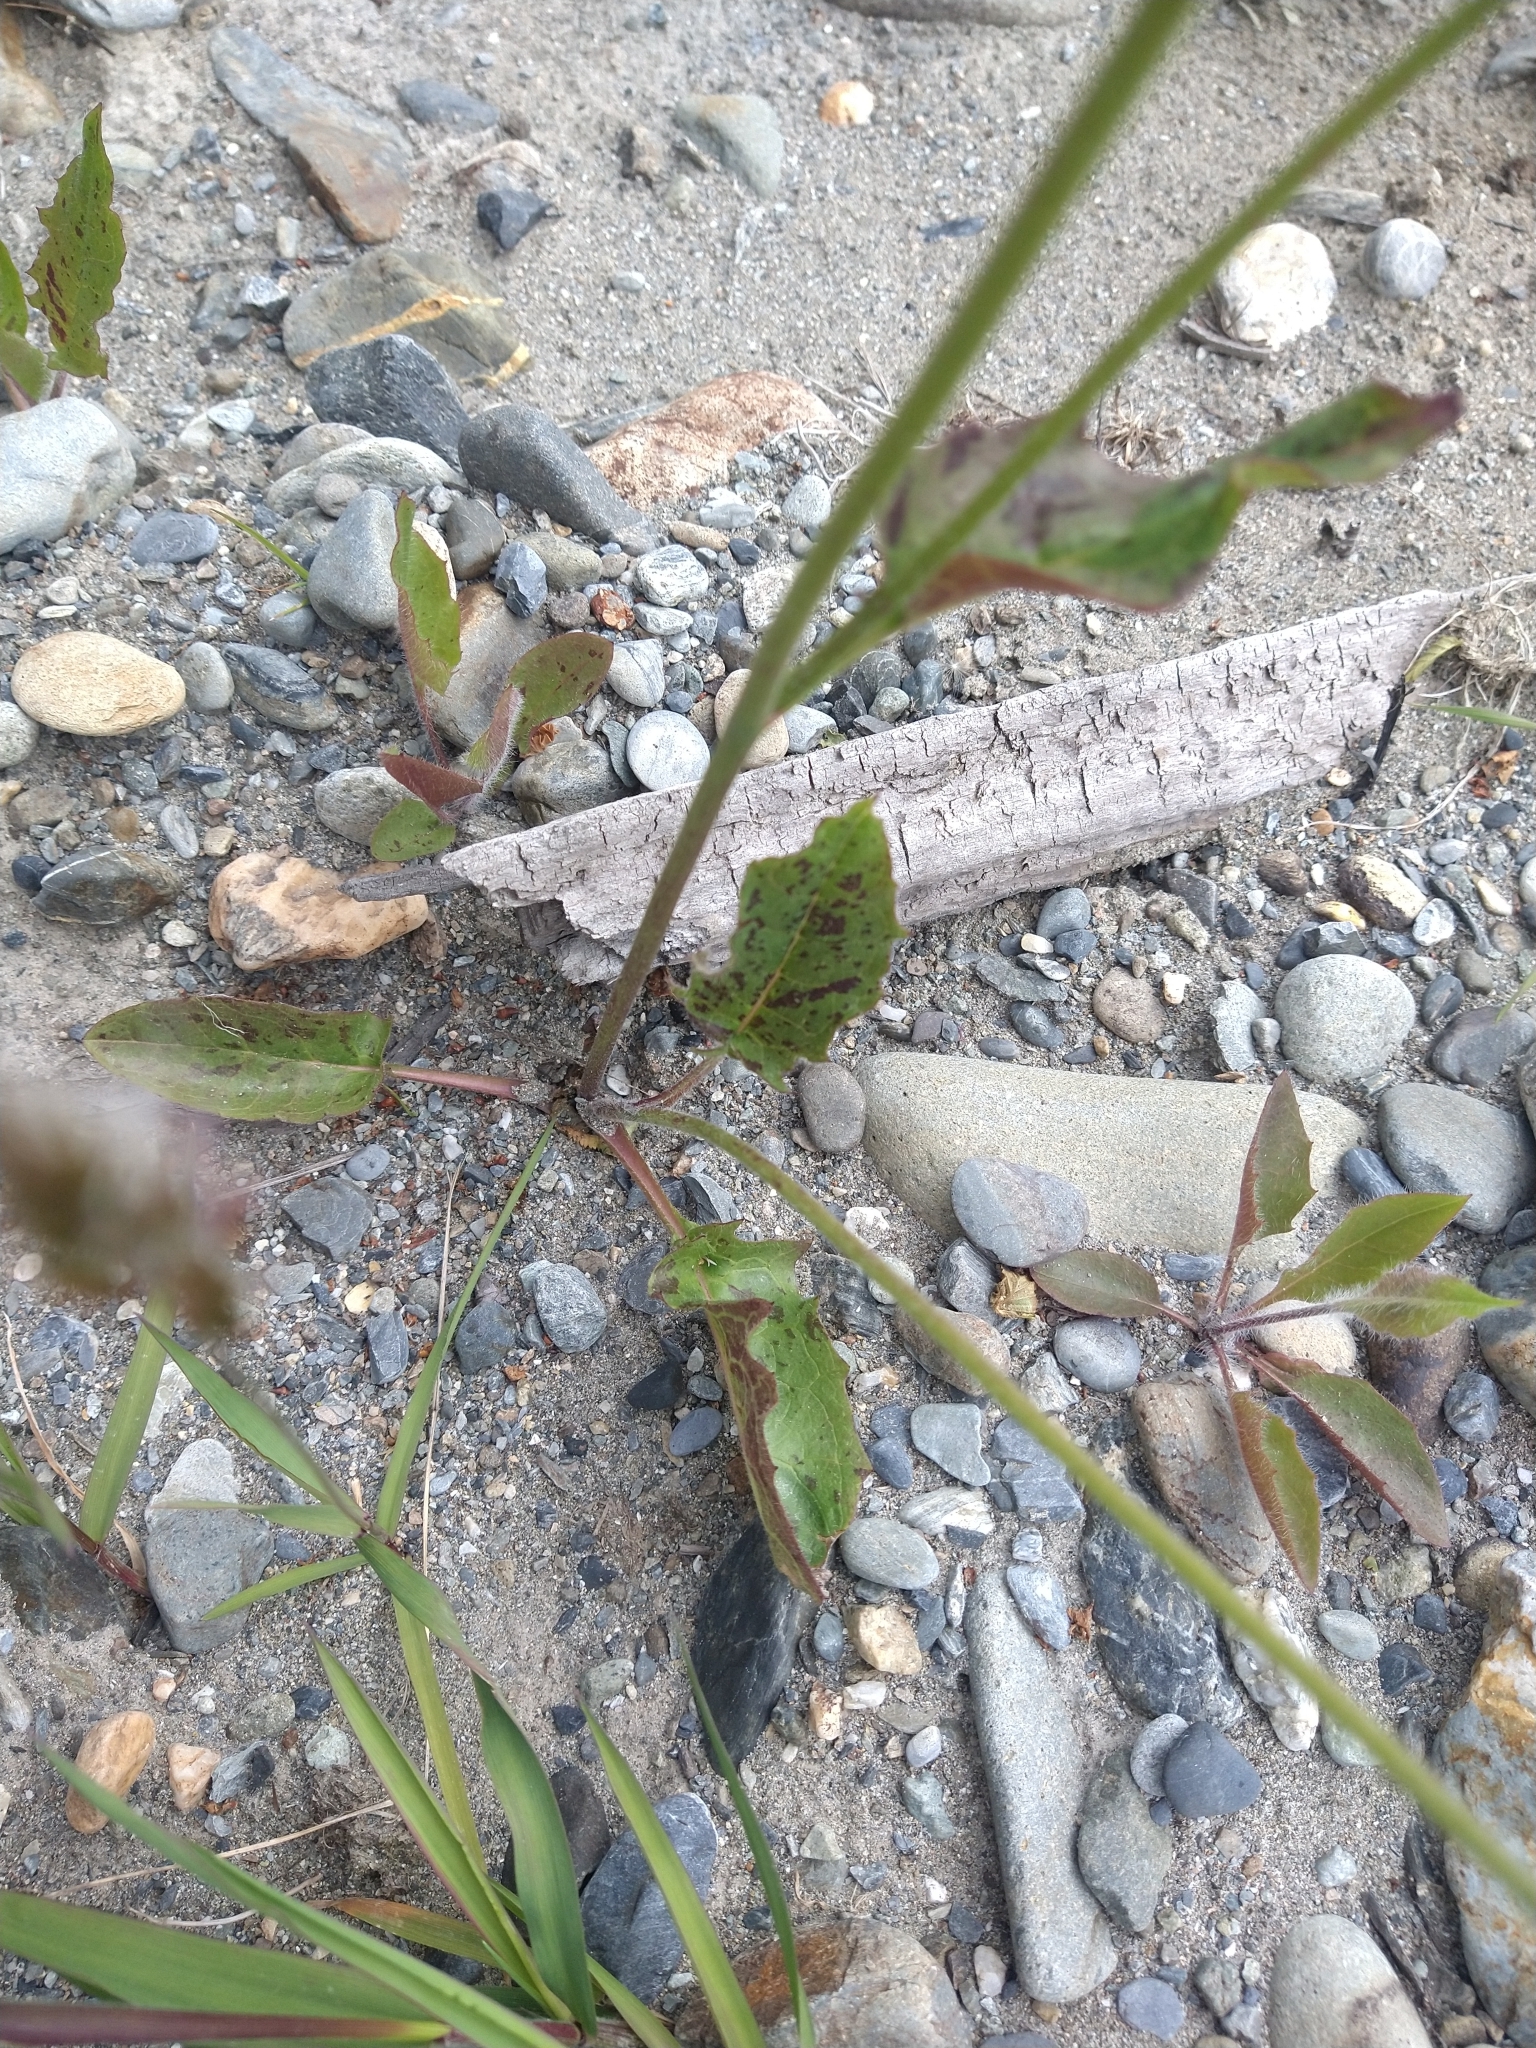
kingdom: Plantae
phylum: Tracheophyta
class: Magnoliopsida
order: Asterales
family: Asteraceae
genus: Hieracium
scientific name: Hieracium murorum
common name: Wall hawkweed
